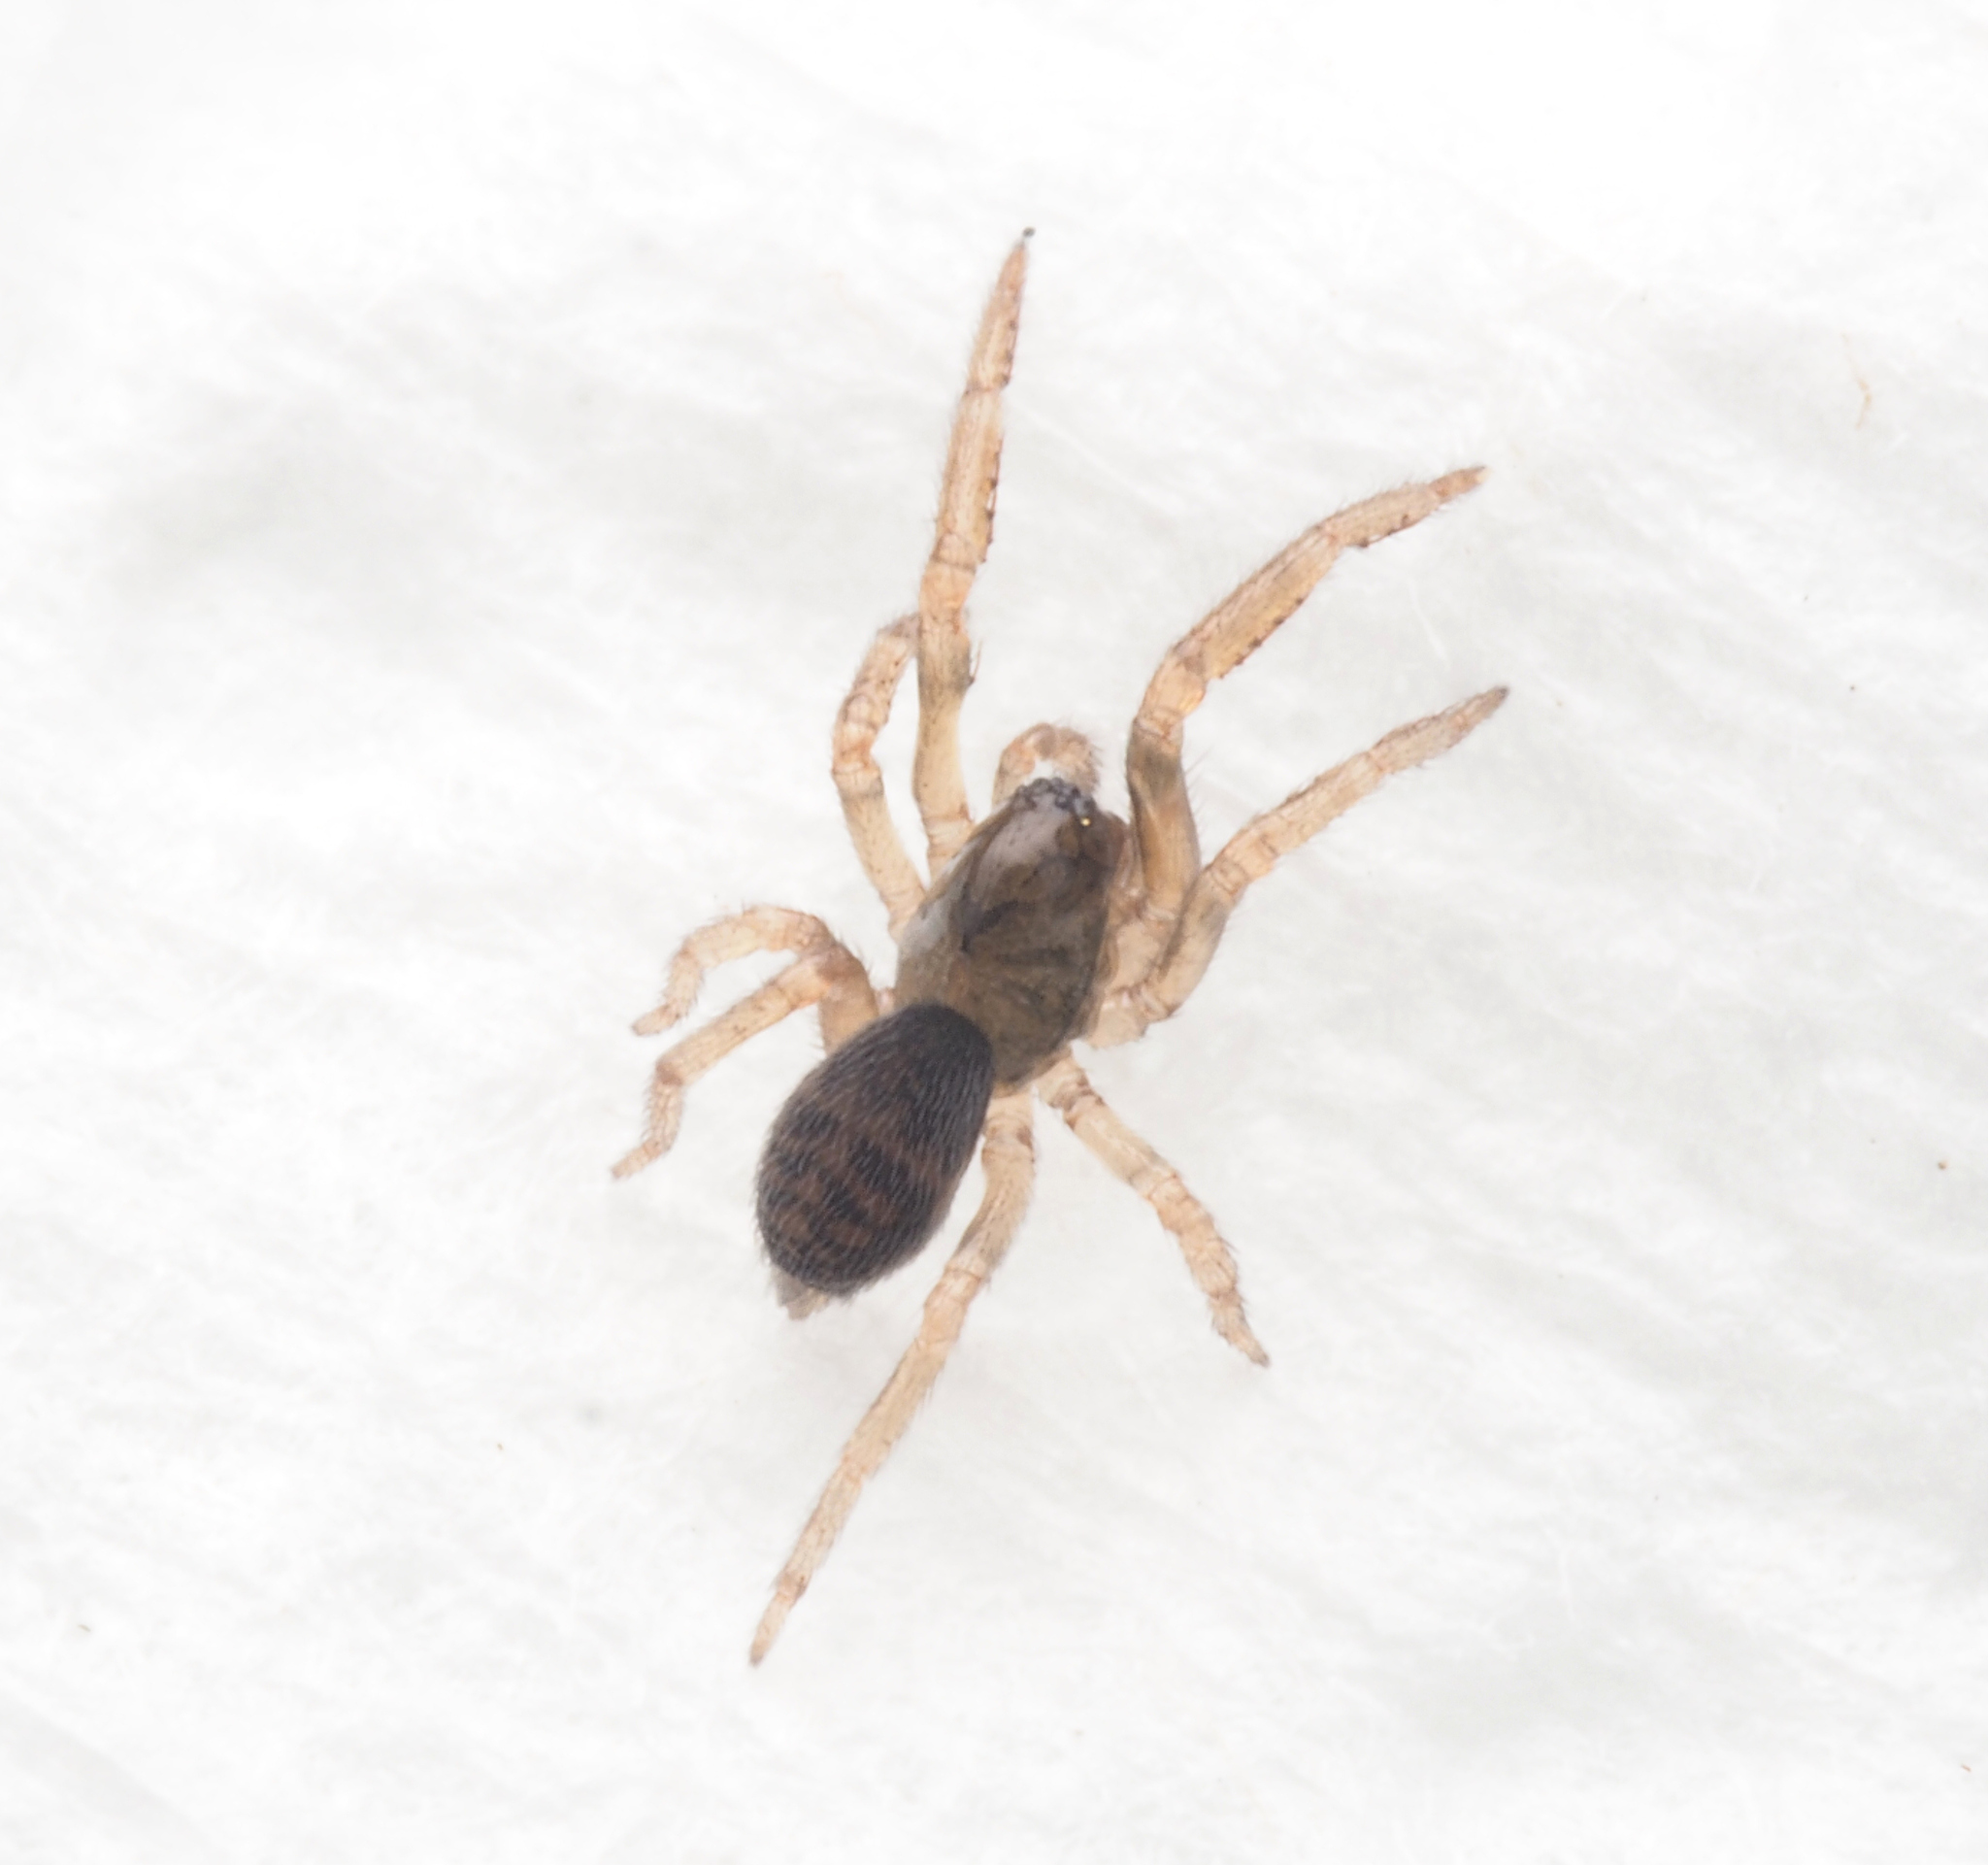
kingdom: Animalia
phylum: Arthropoda
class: Arachnida
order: Araneae
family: Amaurobiidae
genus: Dardurus
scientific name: Dardurus silvaticus
